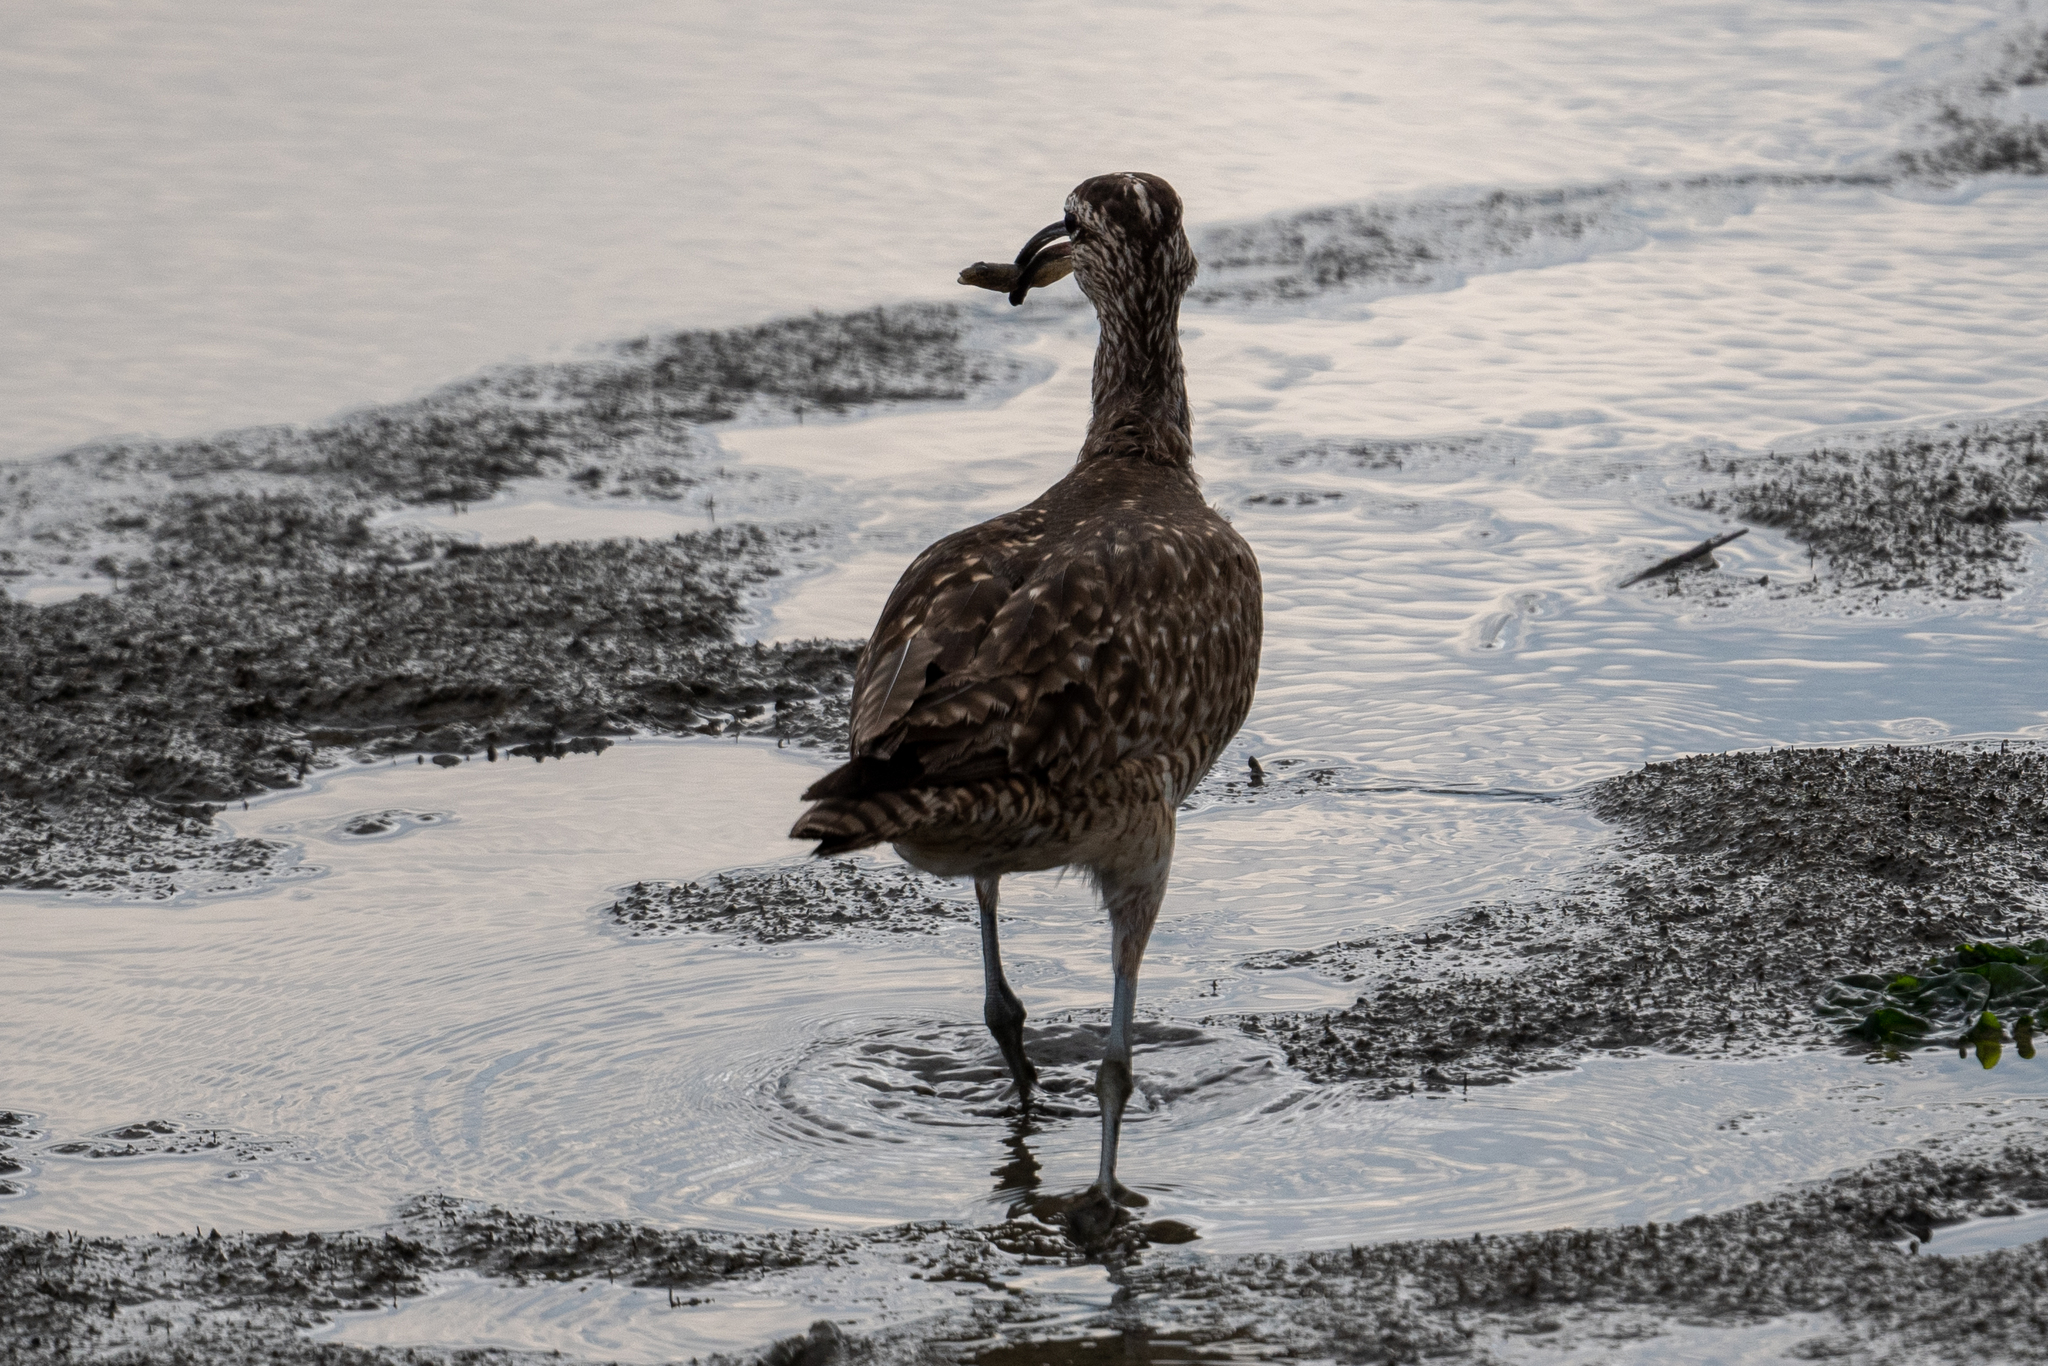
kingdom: Animalia
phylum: Chordata
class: Aves
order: Charadriiformes
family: Scolopacidae
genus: Numenius
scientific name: Numenius phaeopus
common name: Whimbrel
